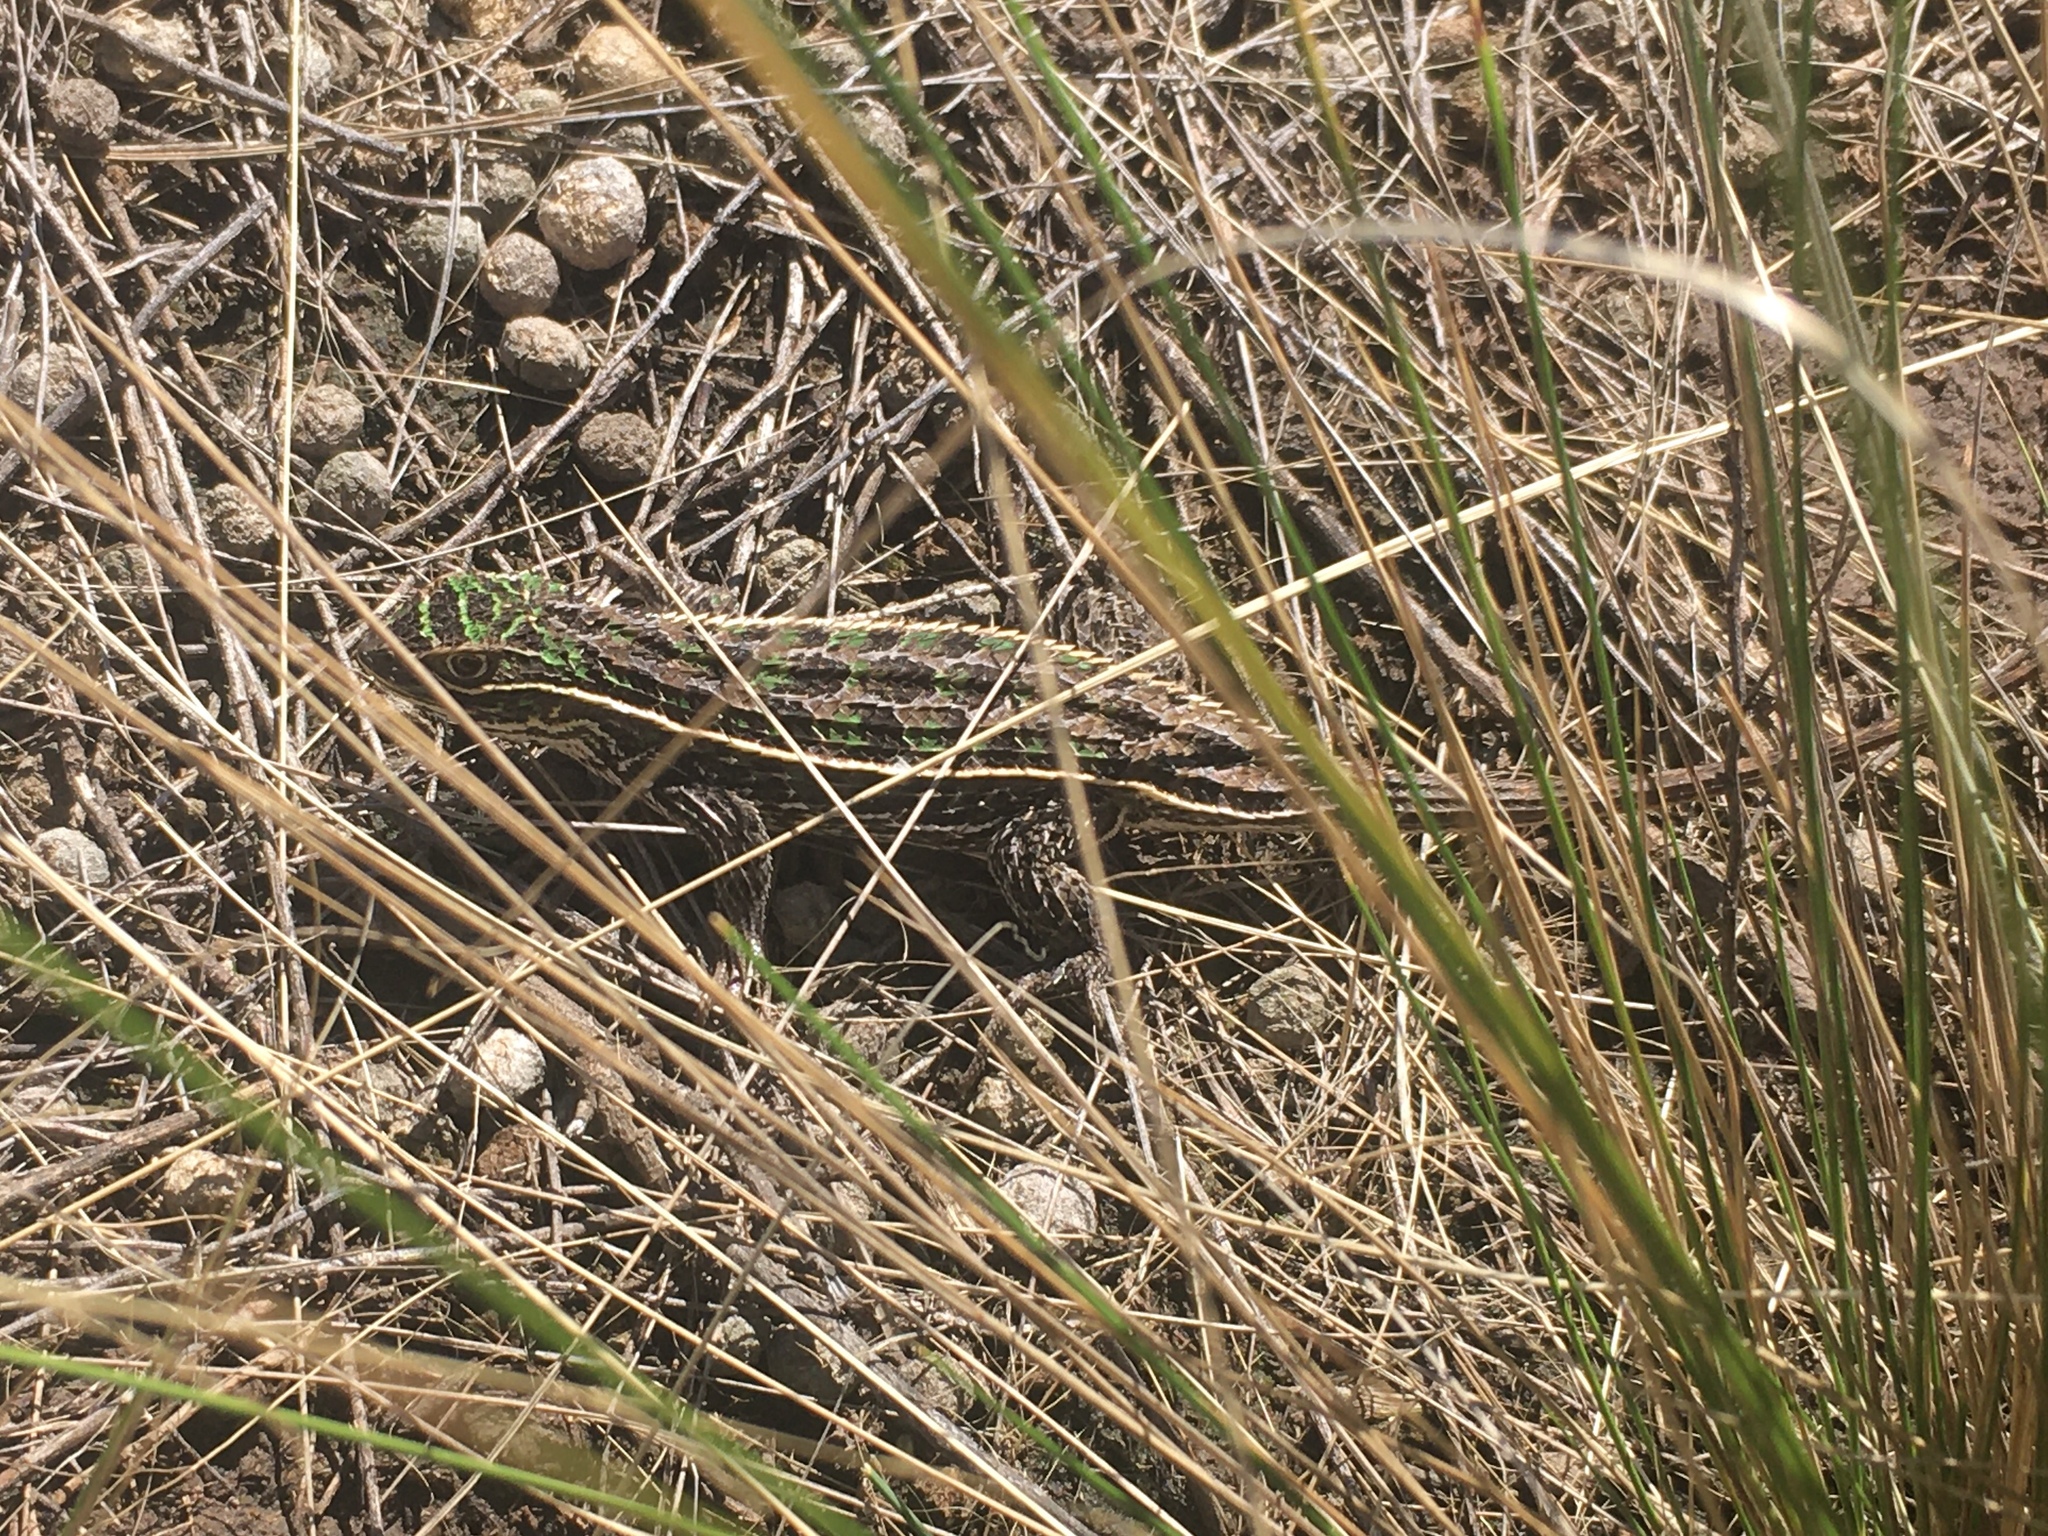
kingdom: Animalia
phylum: Chordata
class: Squamata
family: Tropiduridae
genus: Stenocercus
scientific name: Stenocercus pectinatus
